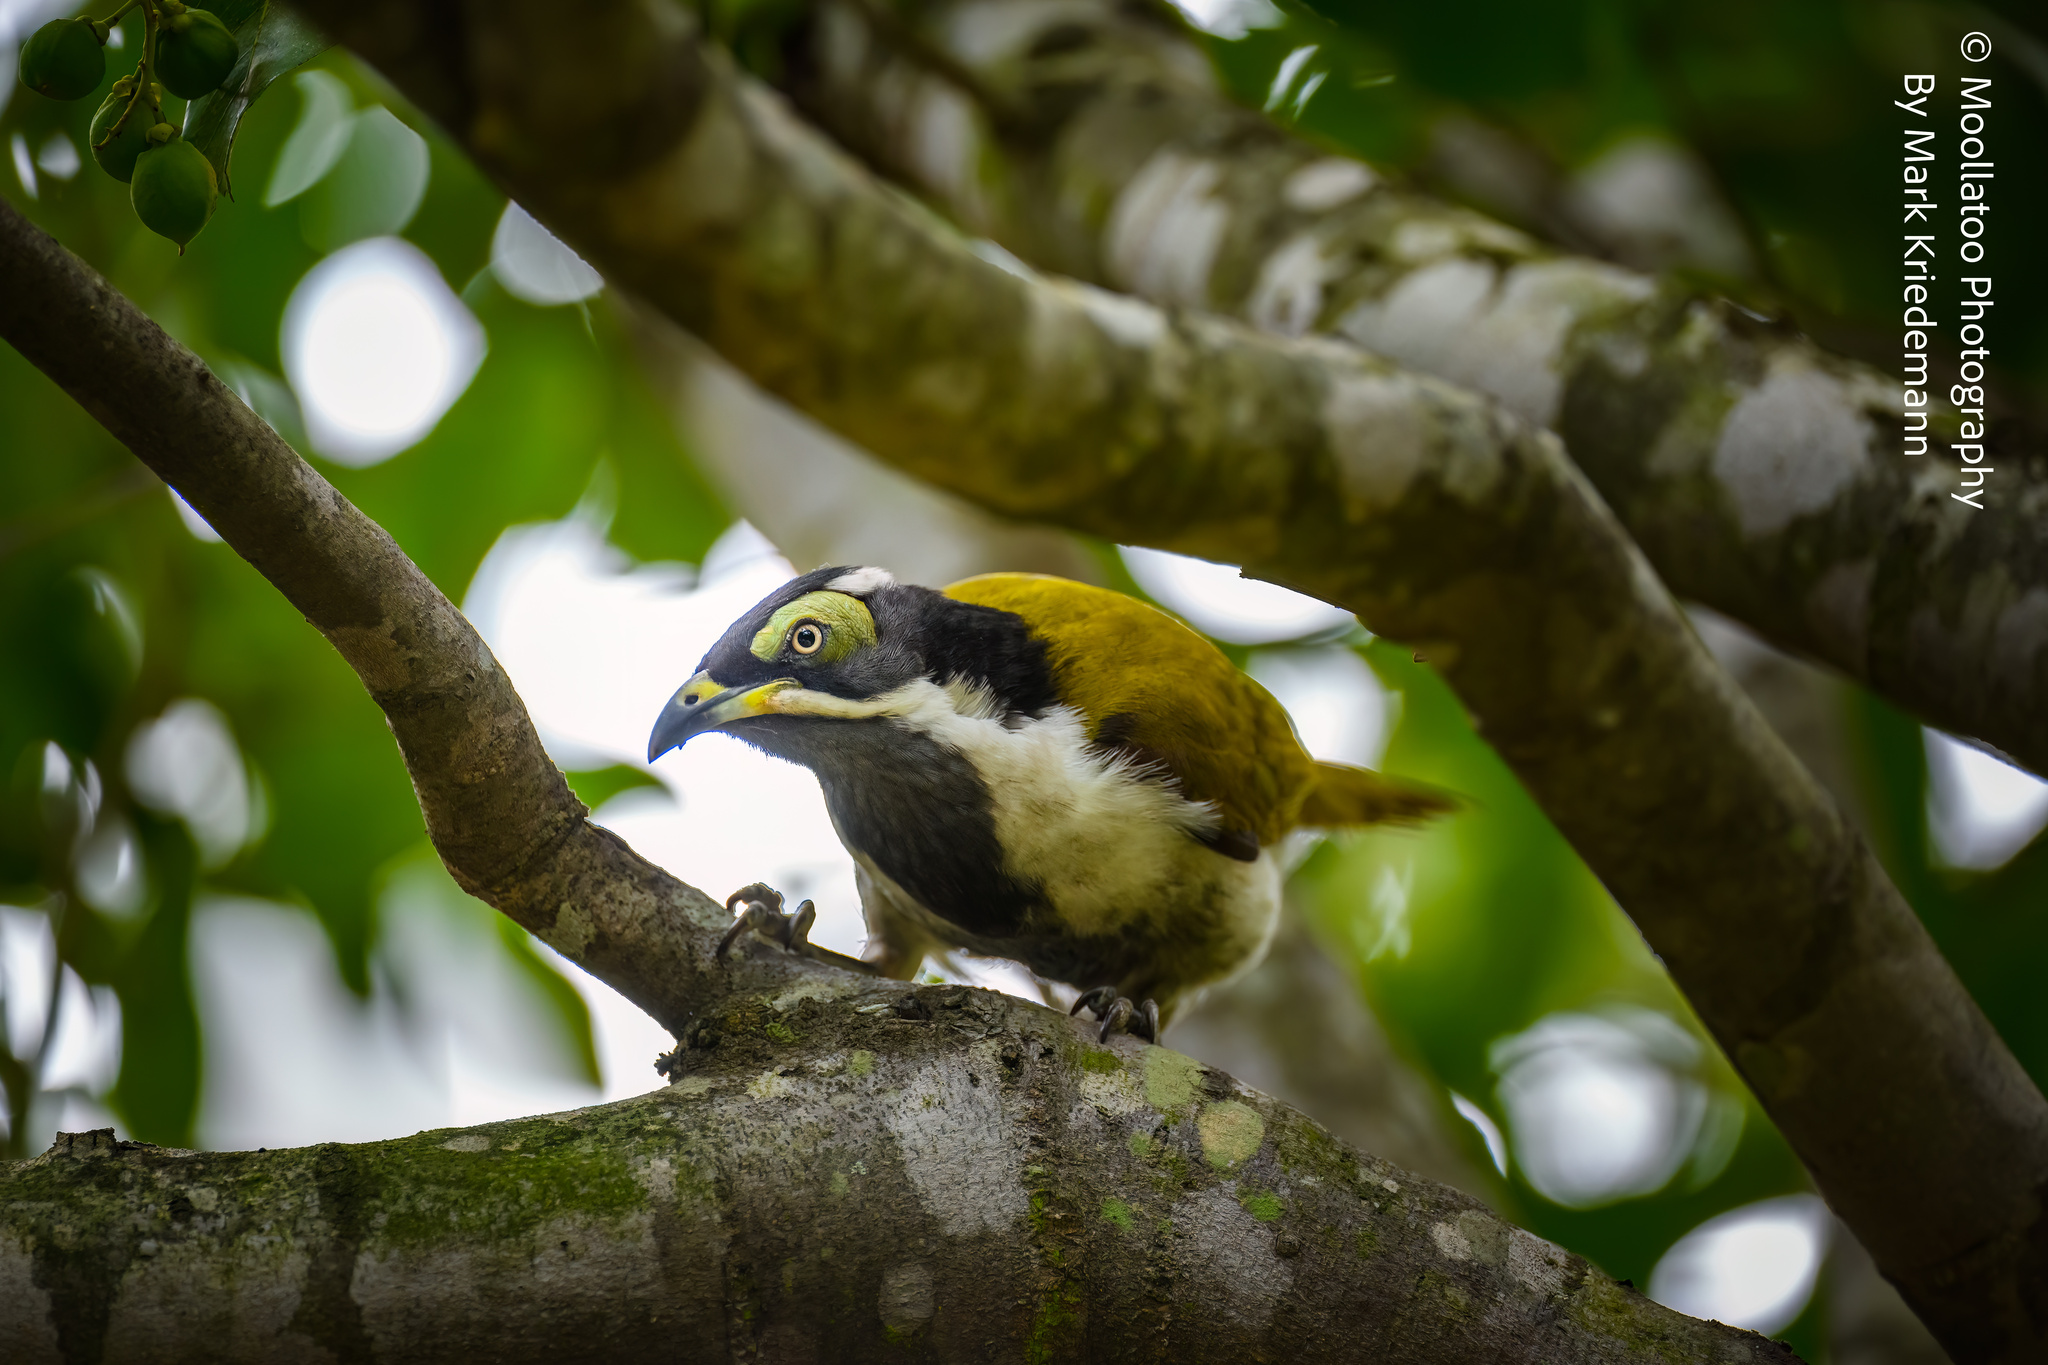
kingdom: Animalia
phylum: Chordata
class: Aves
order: Passeriformes
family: Meliphagidae
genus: Entomyzon
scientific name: Entomyzon cyanotis
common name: Blue-faced honeyeater
